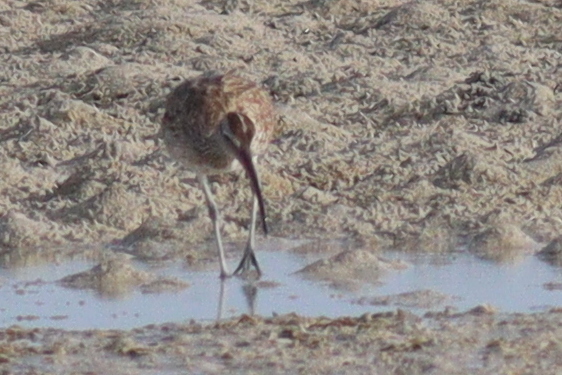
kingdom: Animalia
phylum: Chordata
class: Aves
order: Charadriiformes
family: Scolopacidae
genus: Numenius
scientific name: Numenius phaeopus
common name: Whimbrel
